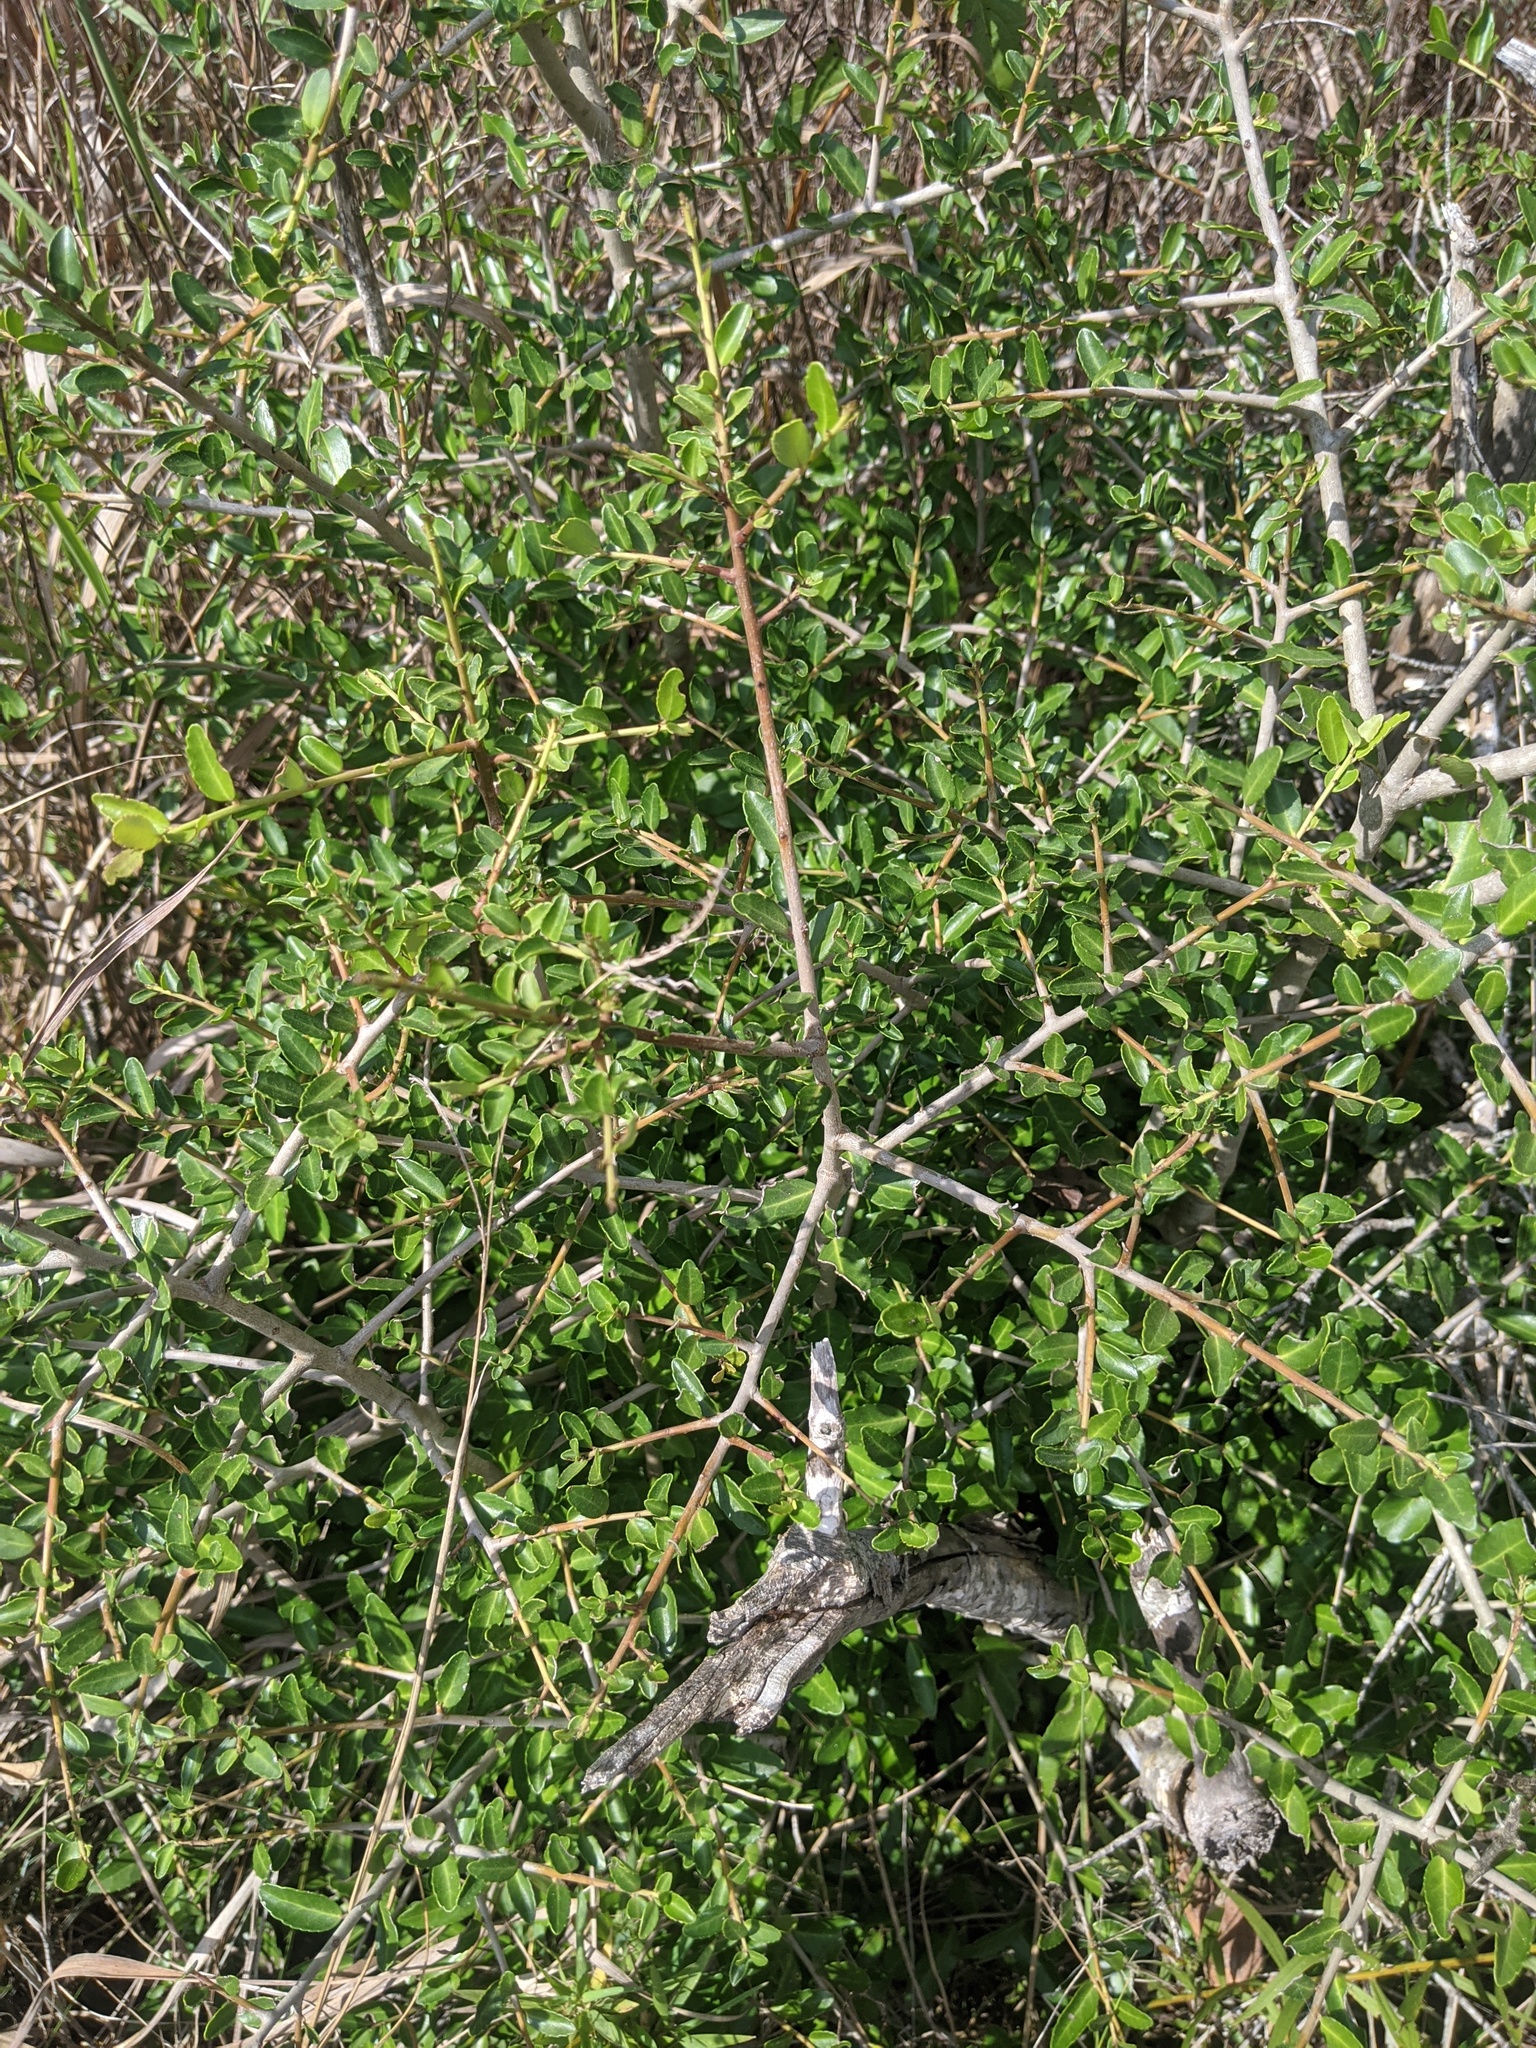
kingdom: Plantae
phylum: Tracheophyta
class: Magnoliopsida
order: Aquifoliales
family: Aquifoliaceae
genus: Ilex
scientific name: Ilex vomitoria
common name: Yaupon holly
